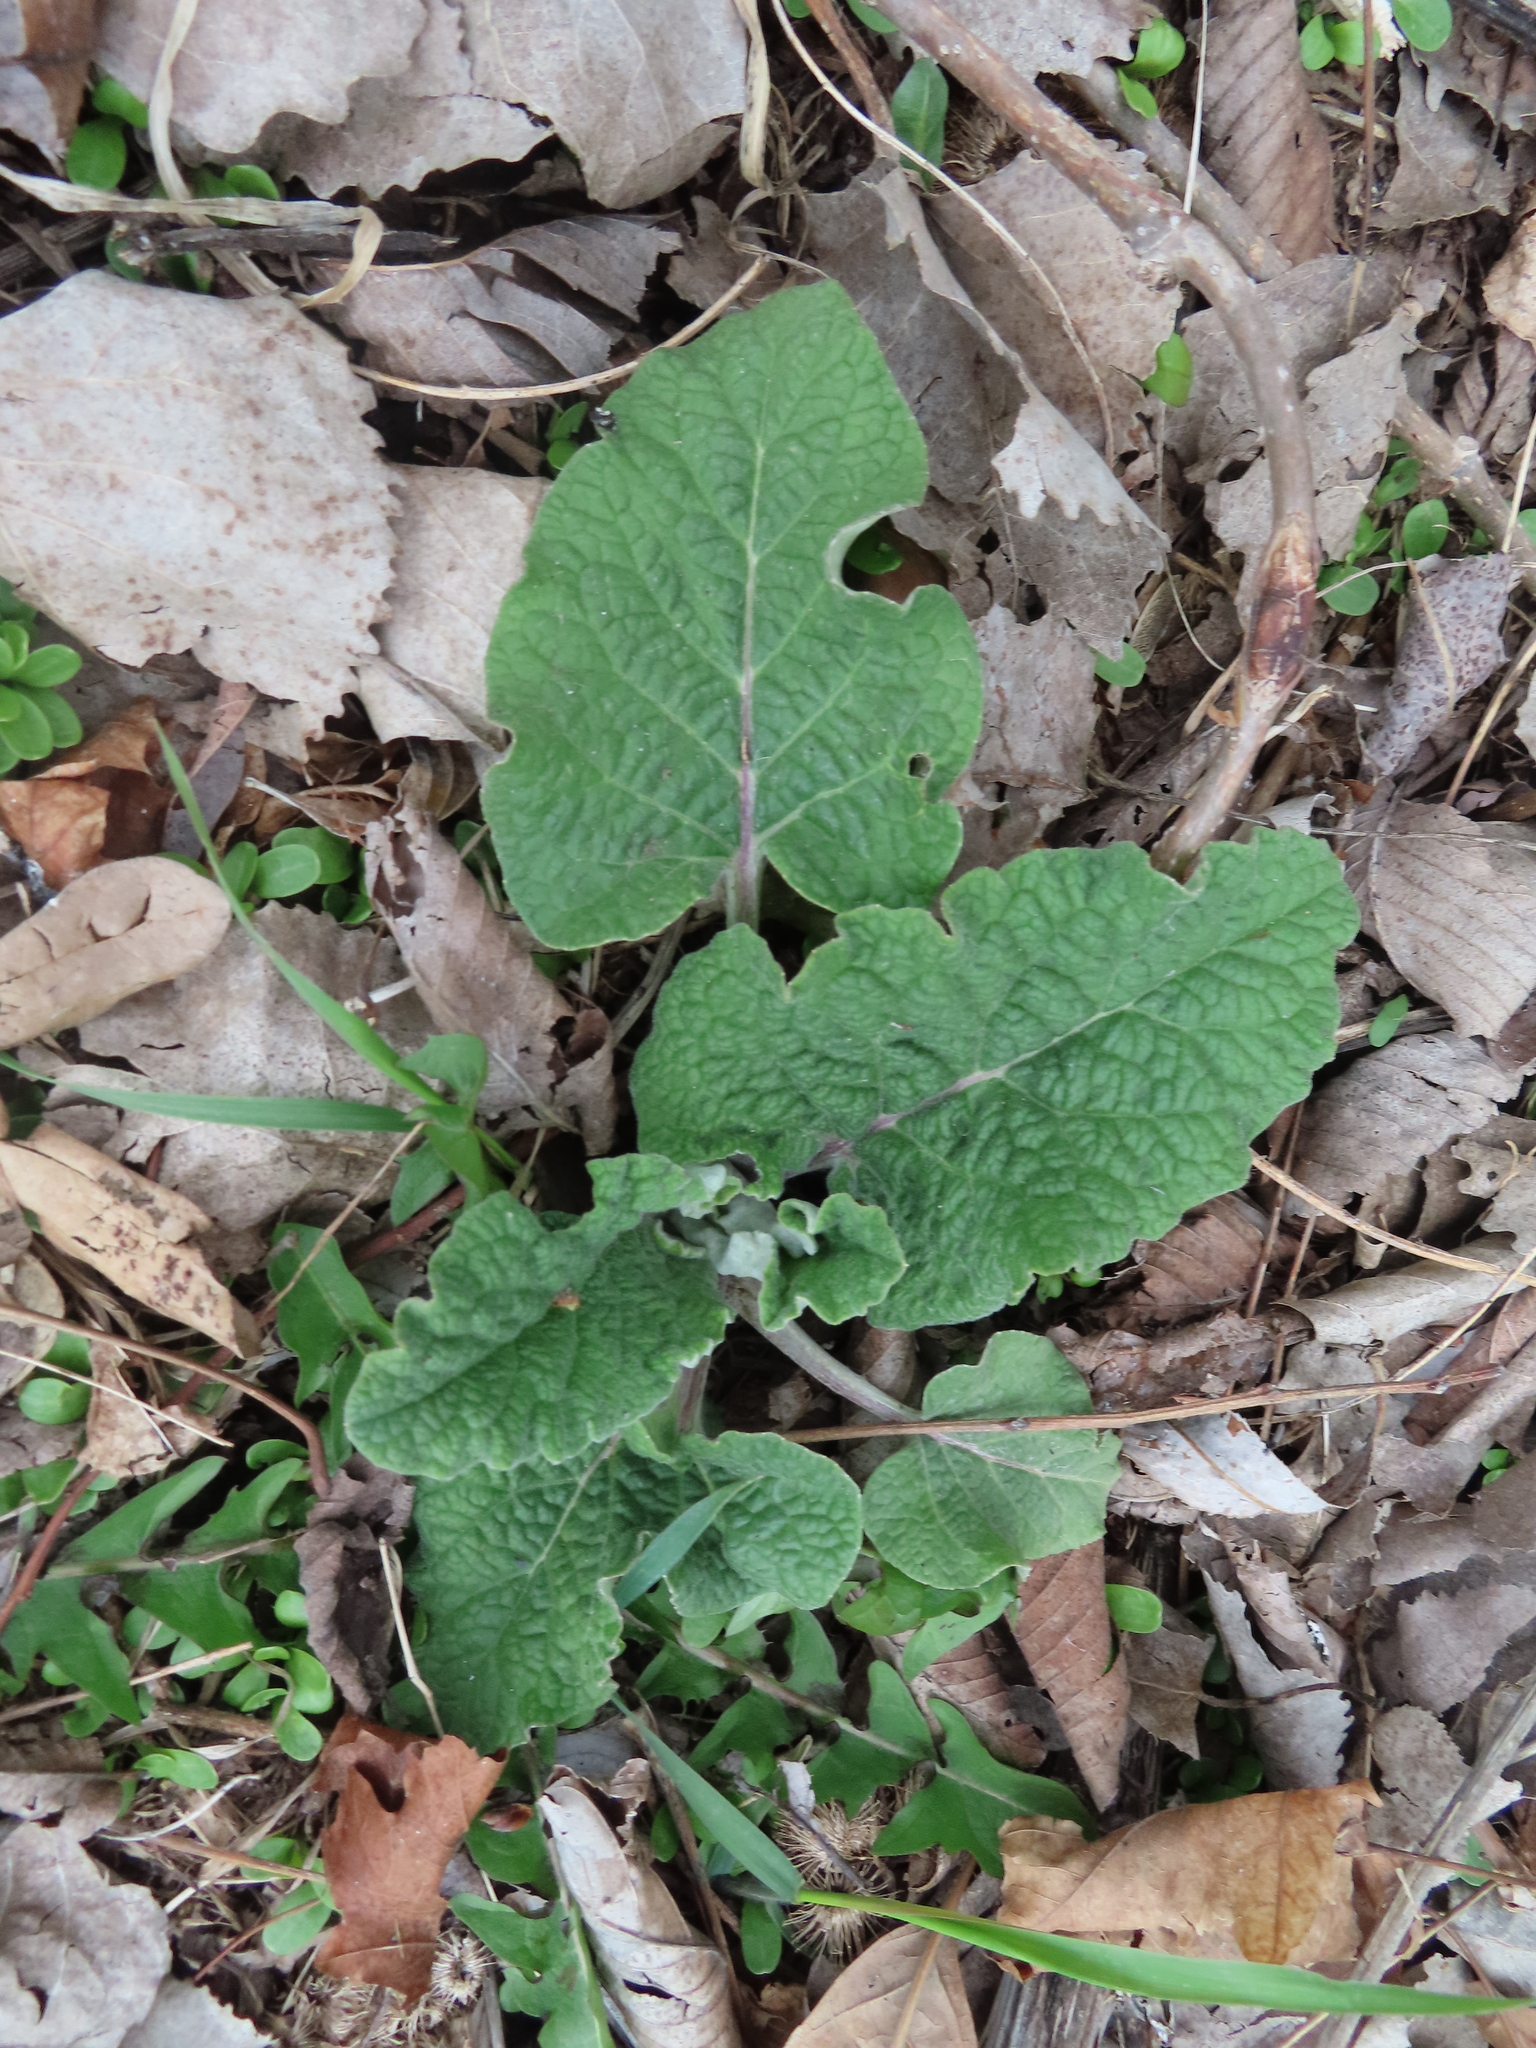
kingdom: Plantae
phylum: Tracheophyta
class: Magnoliopsida
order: Asterales
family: Asteraceae
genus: Arctium
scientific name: Arctium
